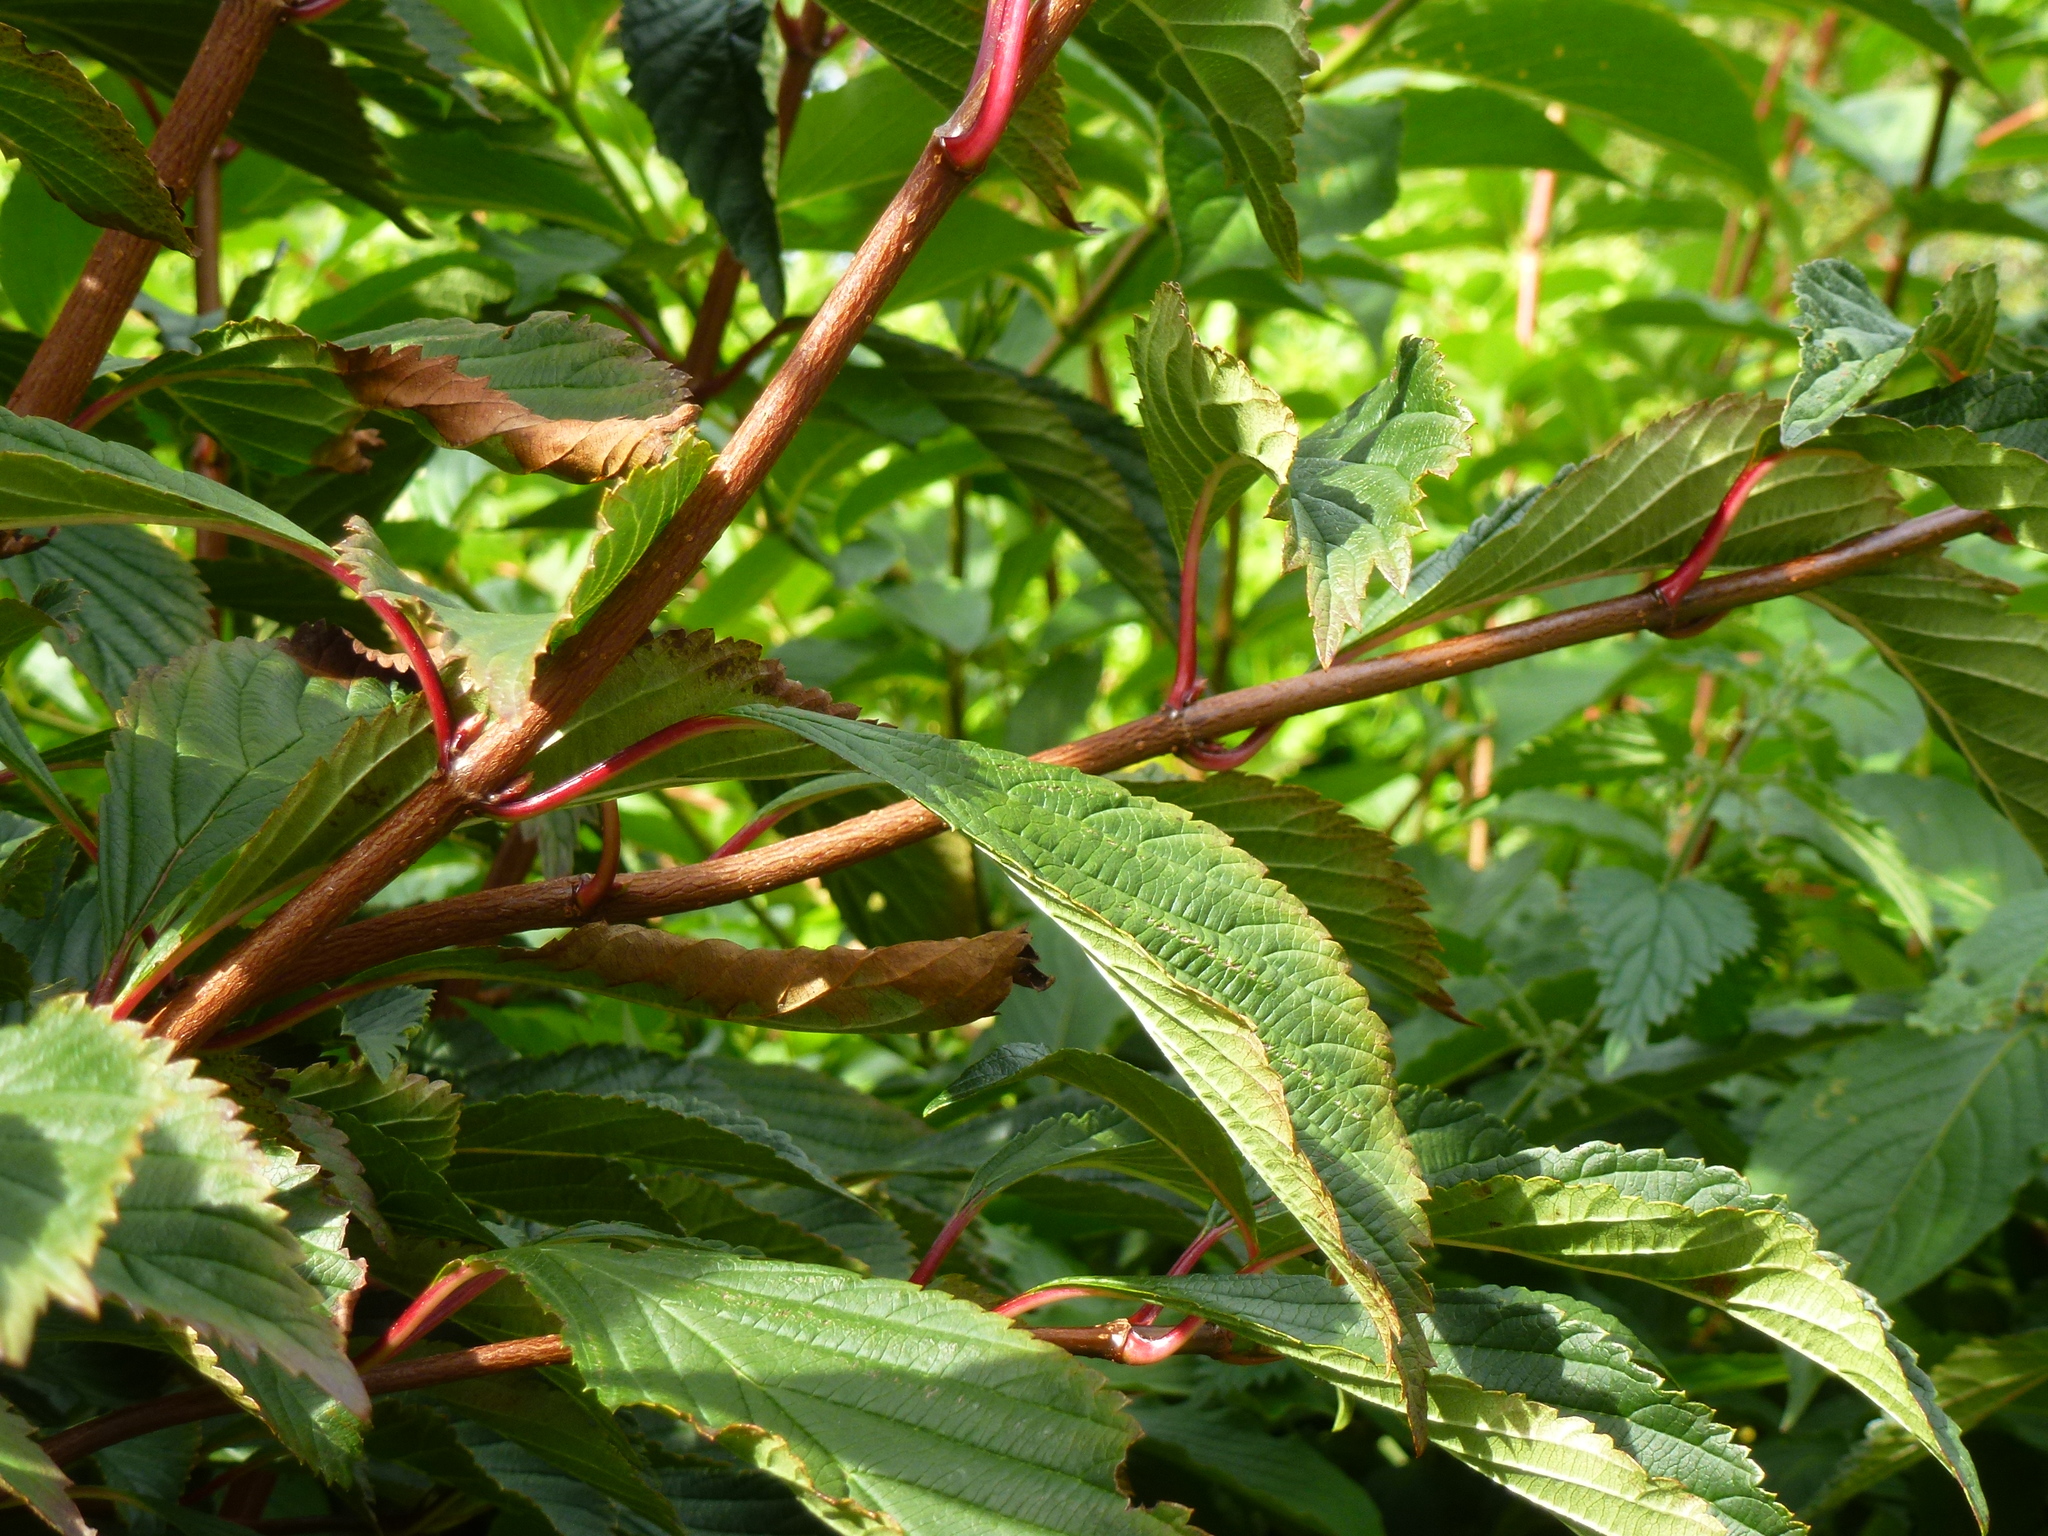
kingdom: Plantae
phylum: Tracheophyta
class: Magnoliopsida
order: Dipsacales
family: Viburnaceae
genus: Viburnum
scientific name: Viburnum bodnantense
